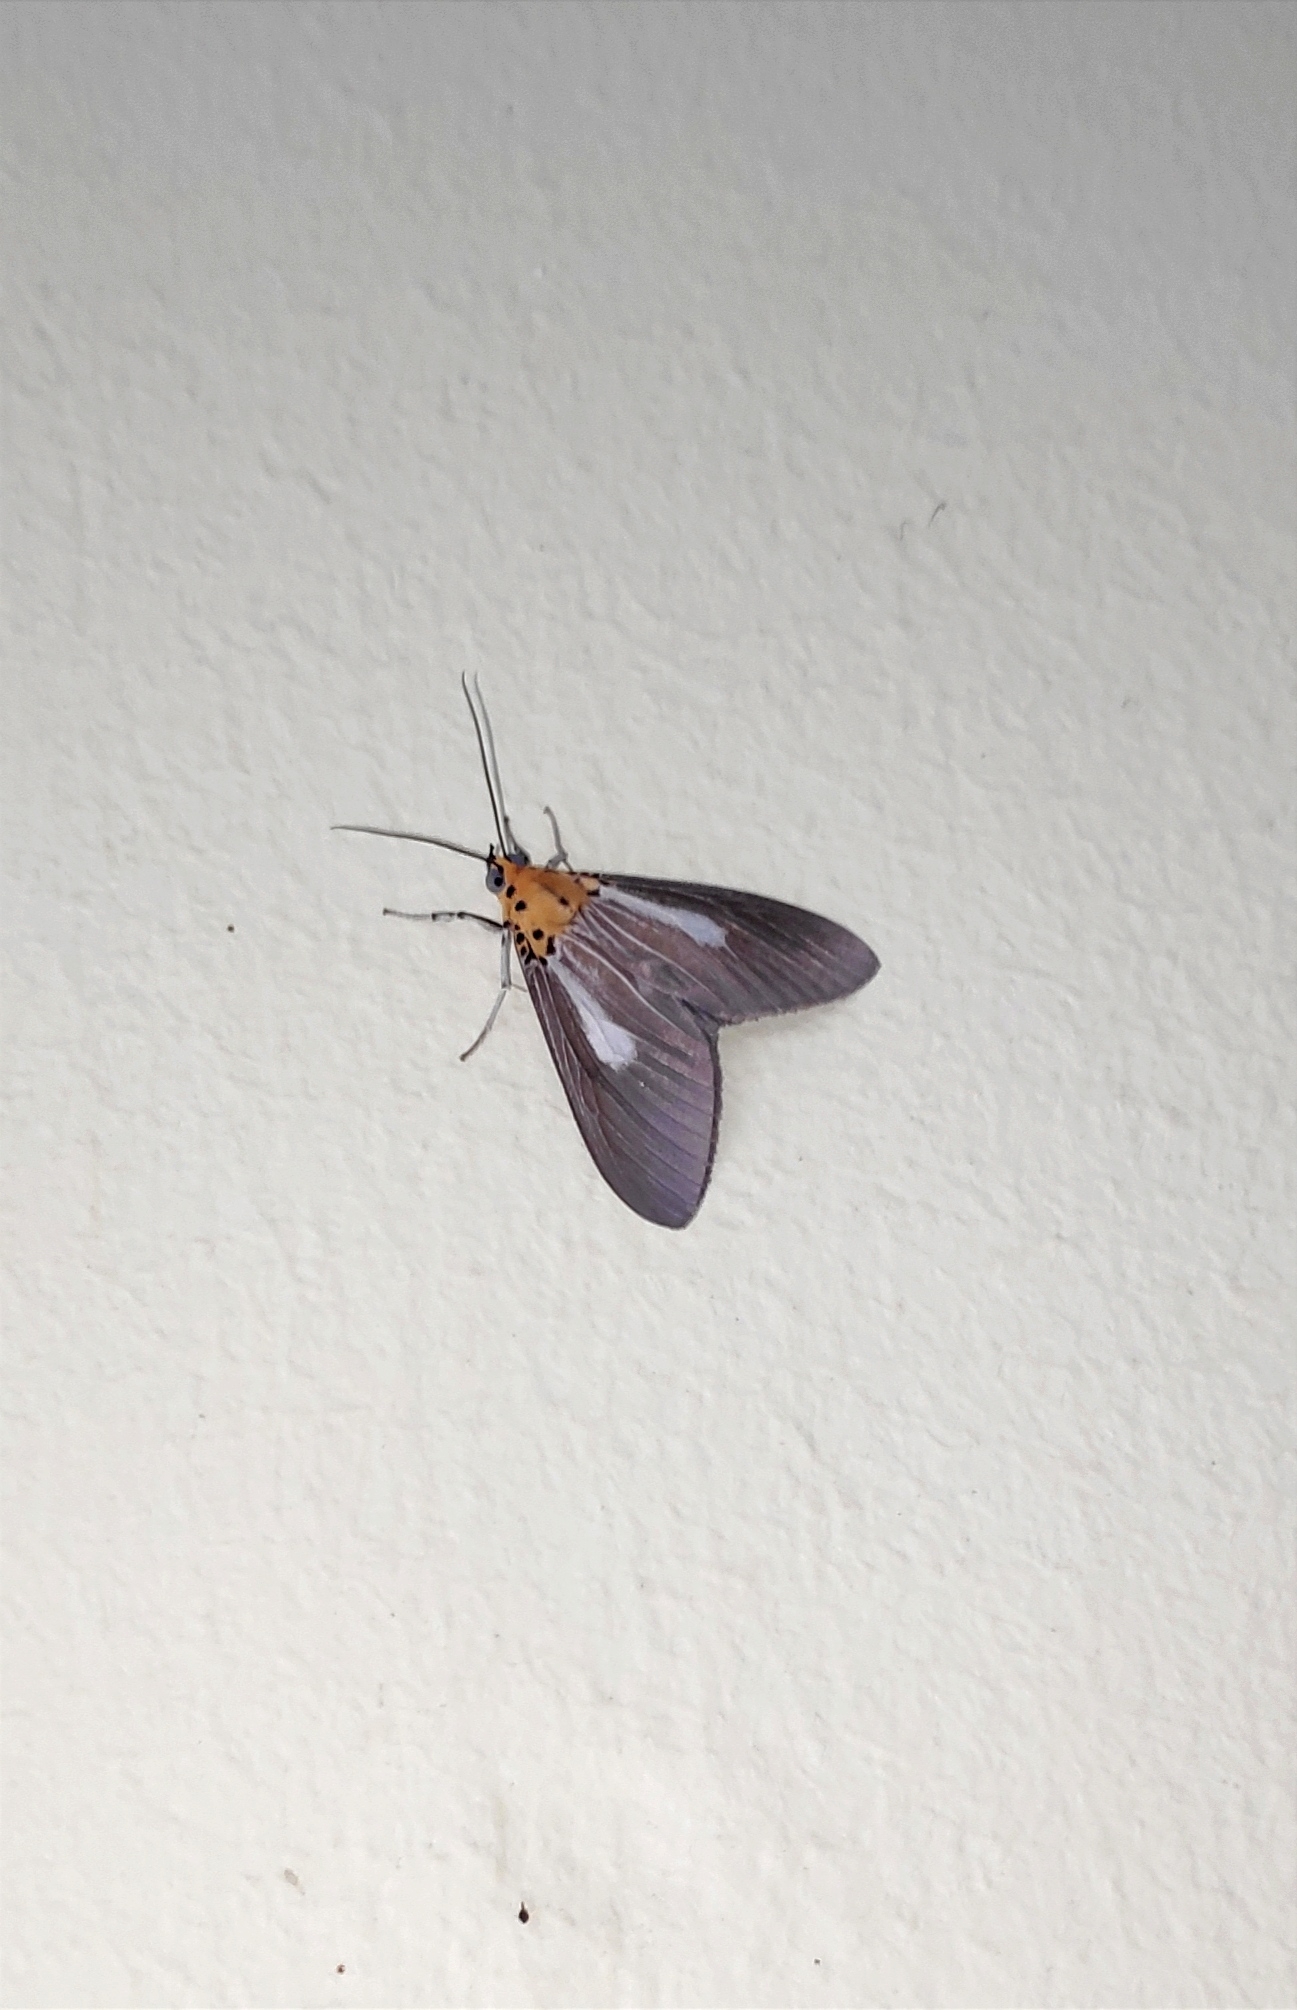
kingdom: Animalia
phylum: Arthropoda
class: Insecta
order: Lepidoptera
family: Erebidae
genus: Asota
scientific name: Asota heliconia
